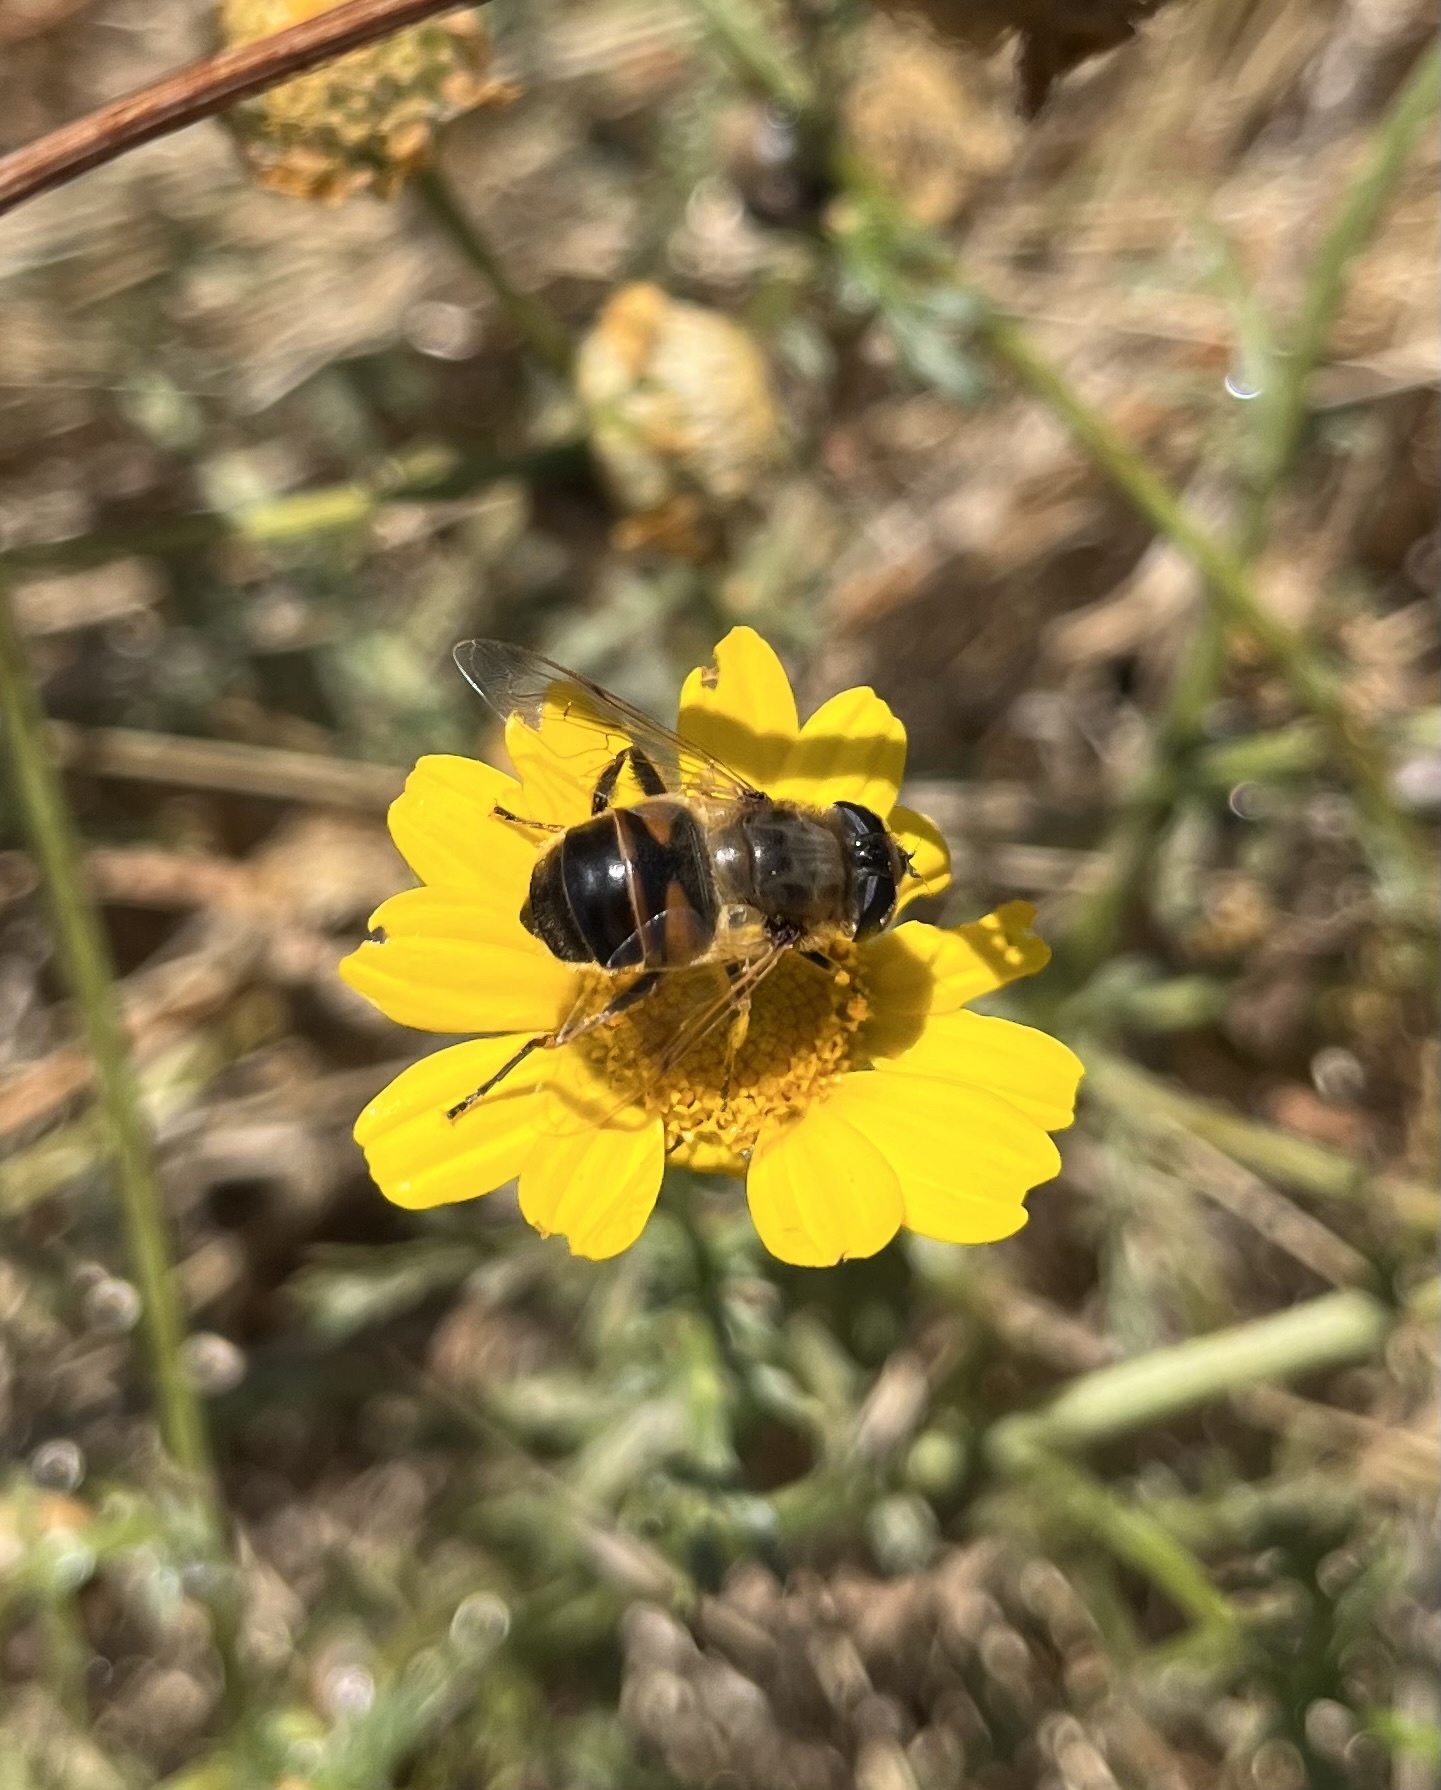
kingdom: Animalia
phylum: Arthropoda
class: Insecta
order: Diptera
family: Syrphidae
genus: Eristalis
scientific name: Eristalis tenax
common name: Drone fly
